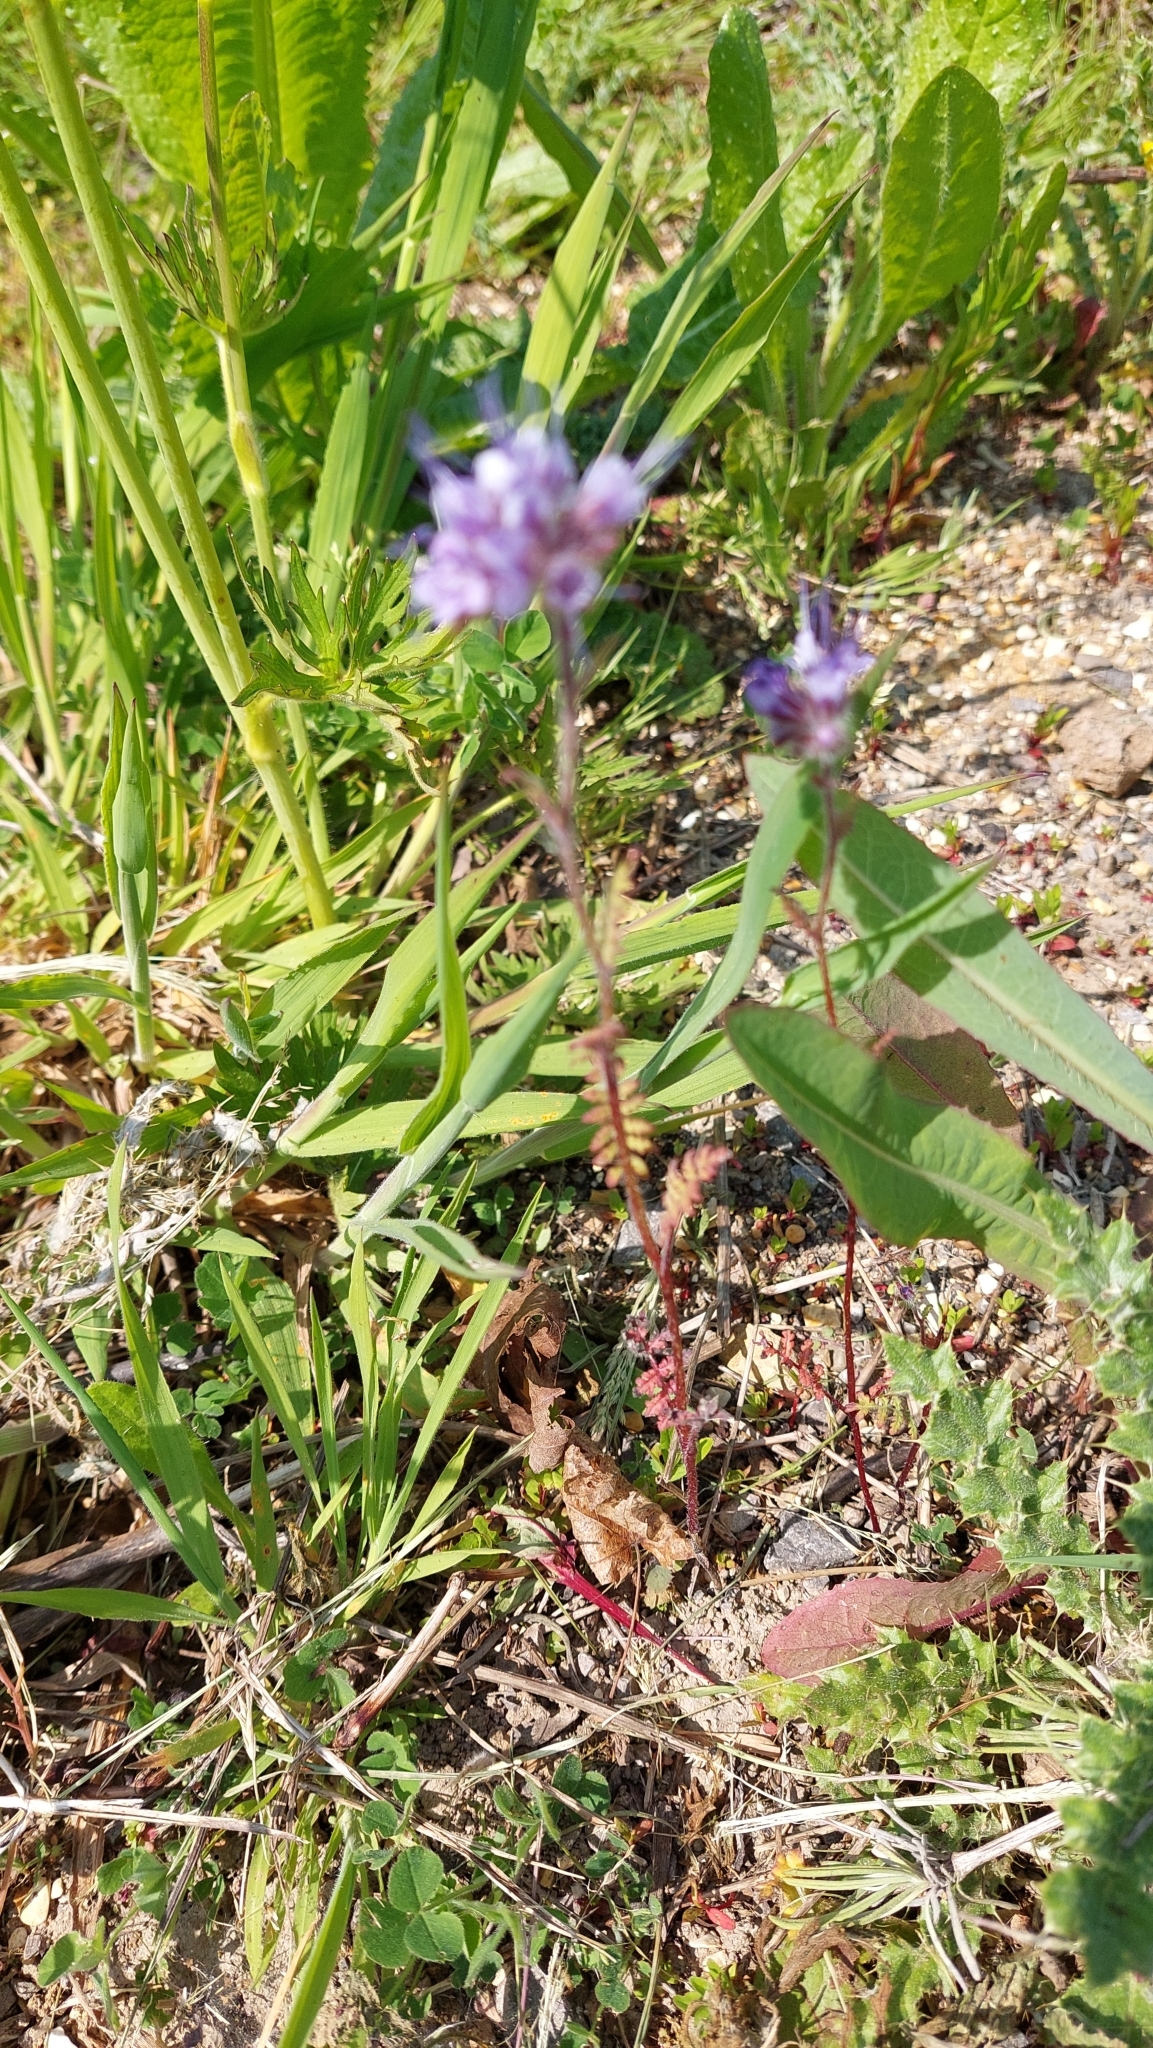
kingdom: Plantae
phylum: Tracheophyta
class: Magnoliopsida
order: Boraginales
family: Hydrophyllaceae
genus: Phacelia
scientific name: Phacelia tanacetifolia
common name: Phacelia
